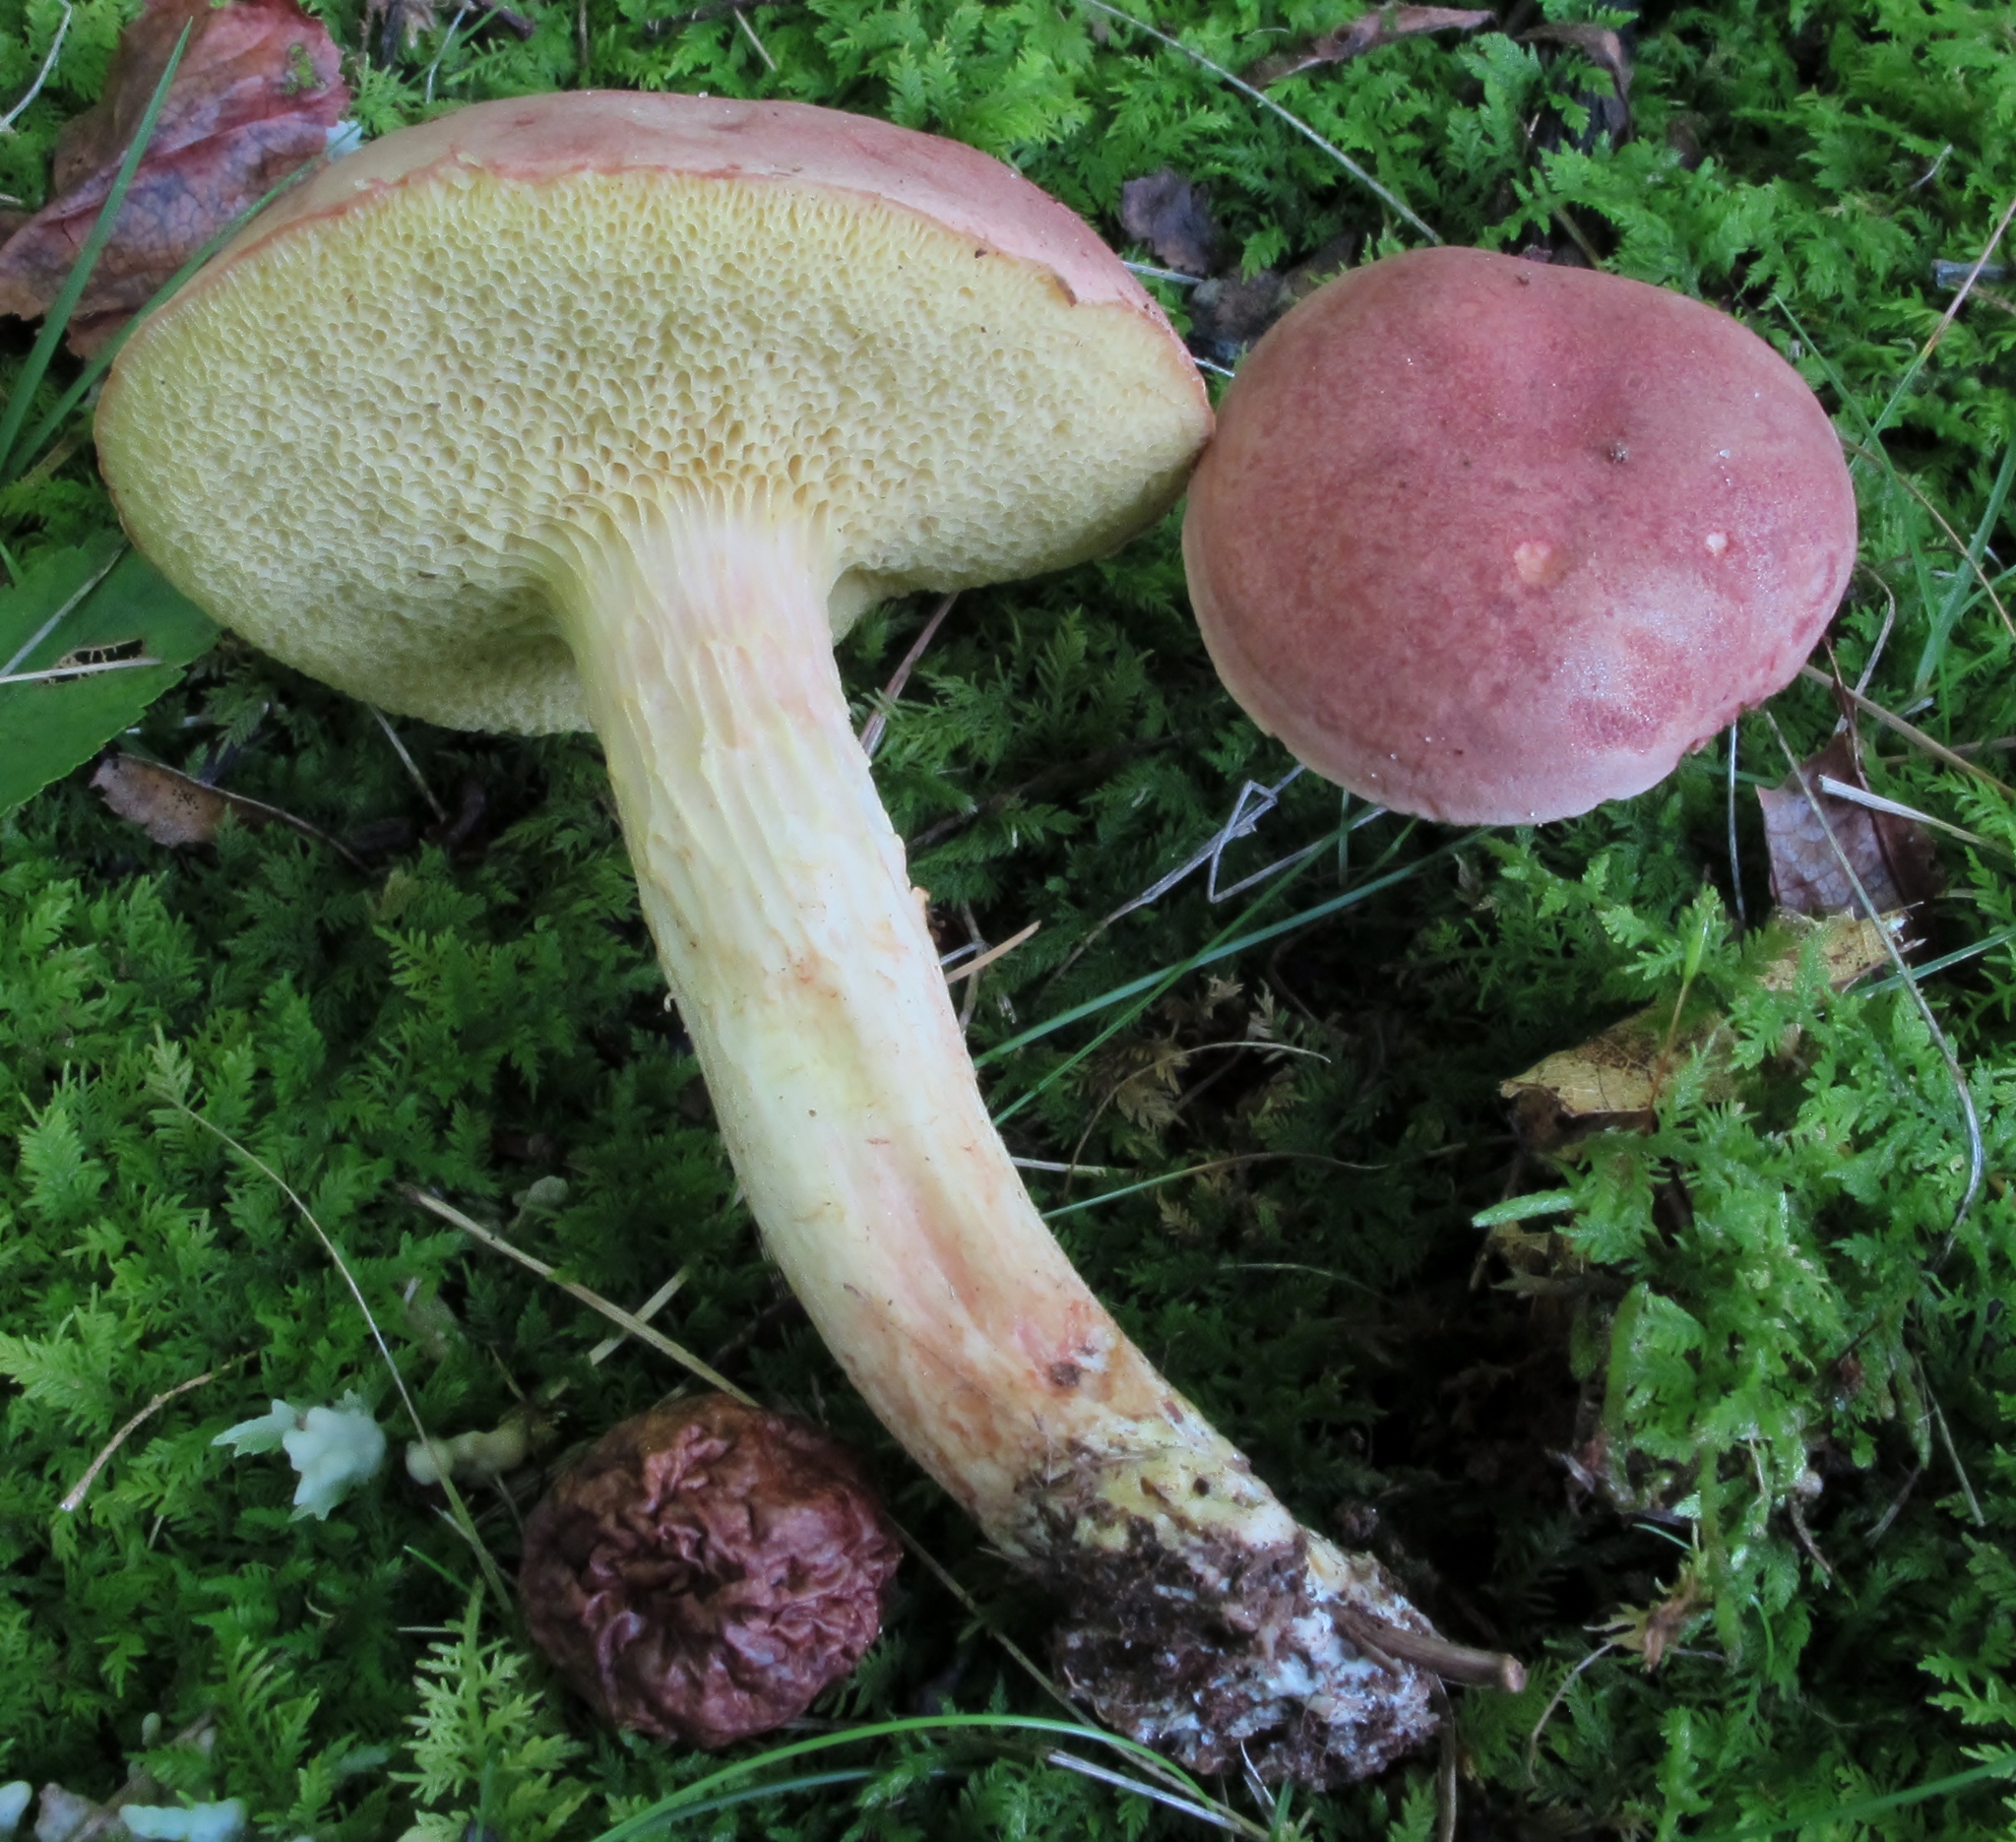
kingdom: Fungi
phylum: Basidiomycota
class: Agaricomycetes
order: Boletales
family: Boletaceae
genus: Xerocomus
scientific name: Xerocomus illudens
